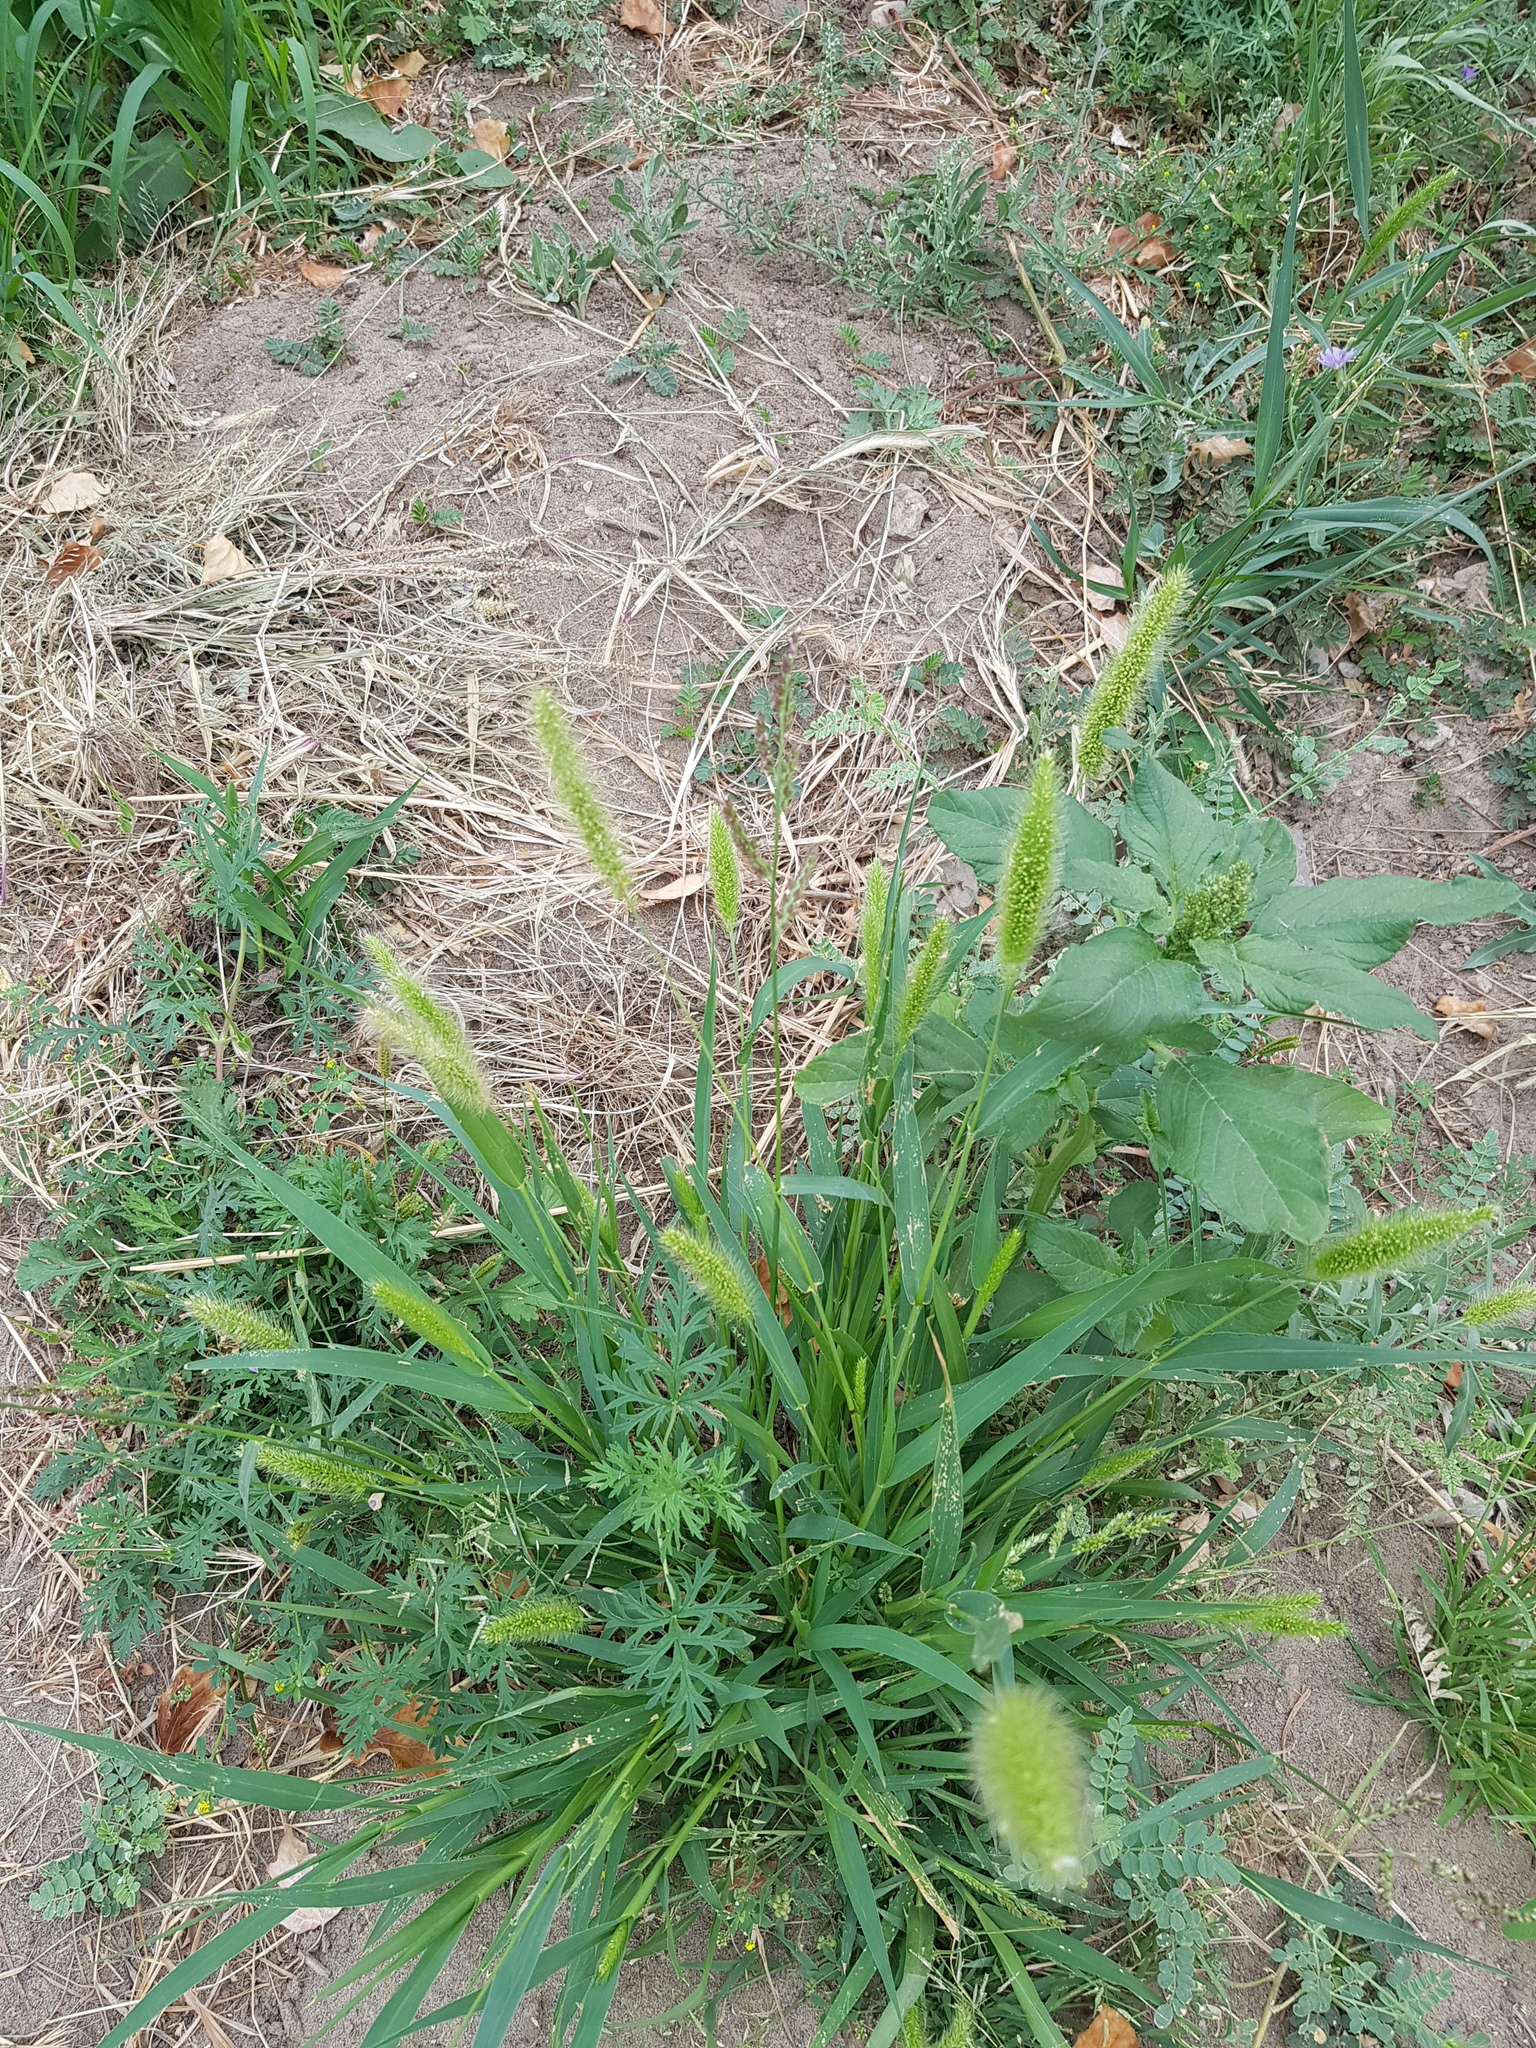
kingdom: Plantae
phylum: Tracheophyta
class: Liliopsida
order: Poales
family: Poaceae
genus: Setaria
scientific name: Setaria viridis
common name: Green bristlegrass
